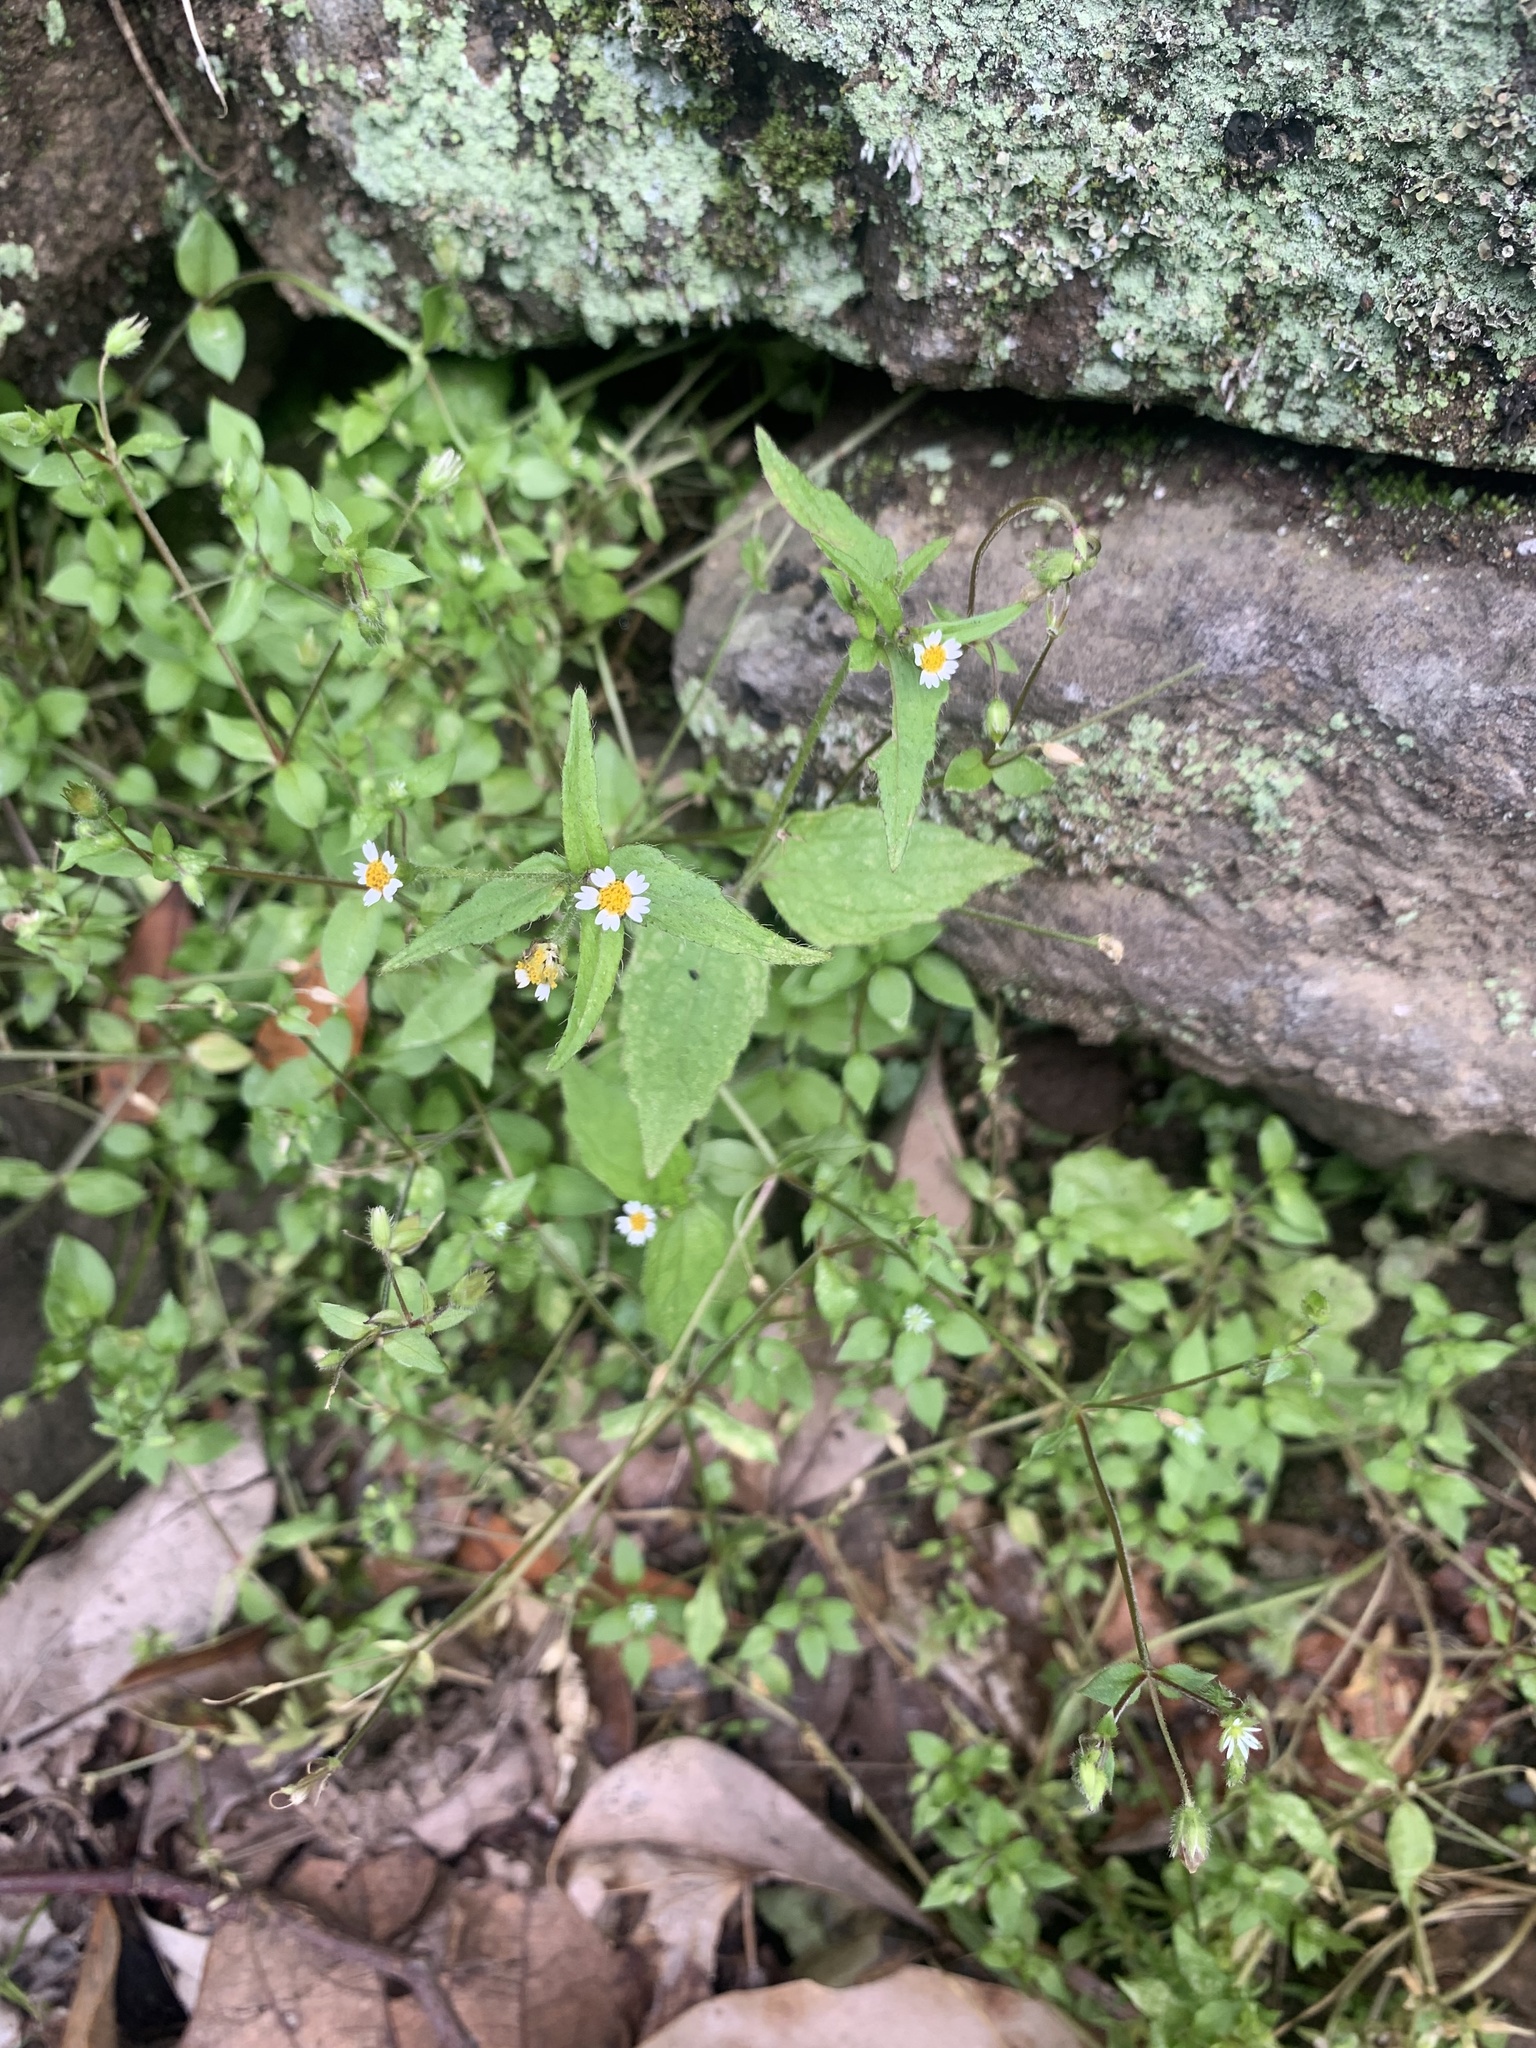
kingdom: Plantae
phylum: Tracheophyta
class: Magnoliopsida
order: Asterales
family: Asteraceae
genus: Galinsoga
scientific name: Galinsoga quadriradiata
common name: Shaggy soldier
